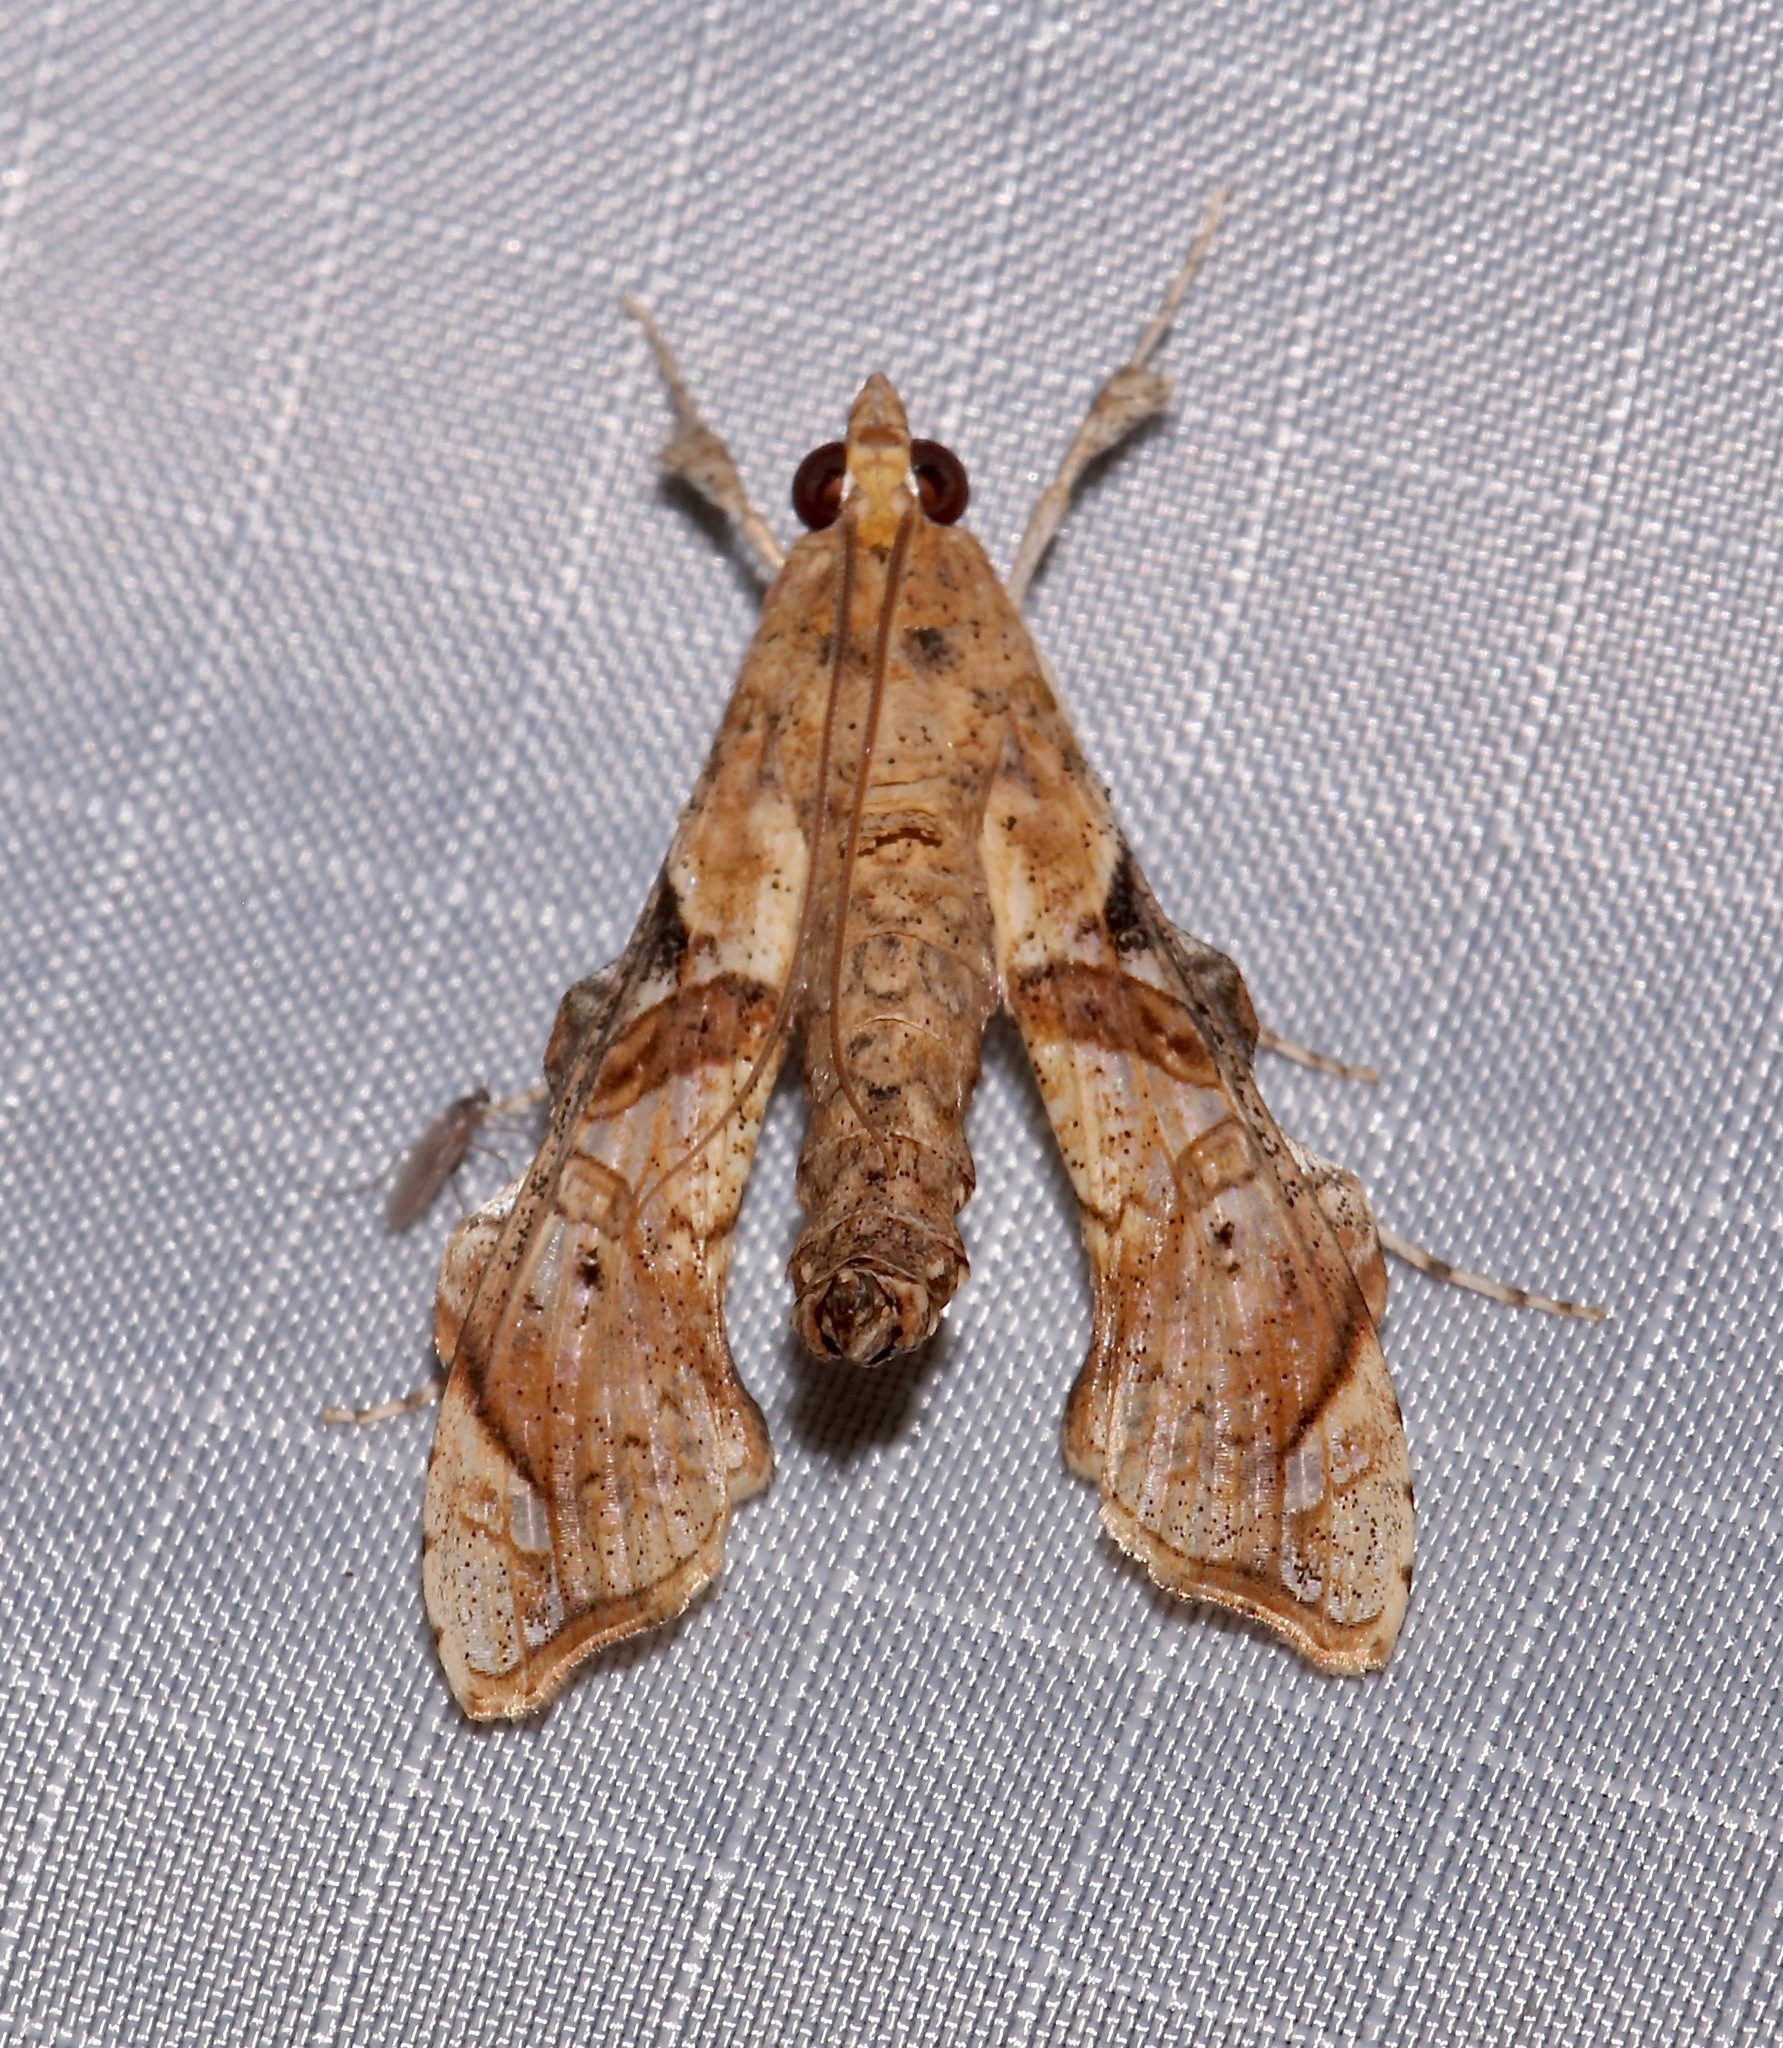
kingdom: Animalia
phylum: Arthropoda
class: Insecta
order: Lepidoptera
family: Crambidae
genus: Terastia
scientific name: Terastia meticulosalis
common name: Moth
